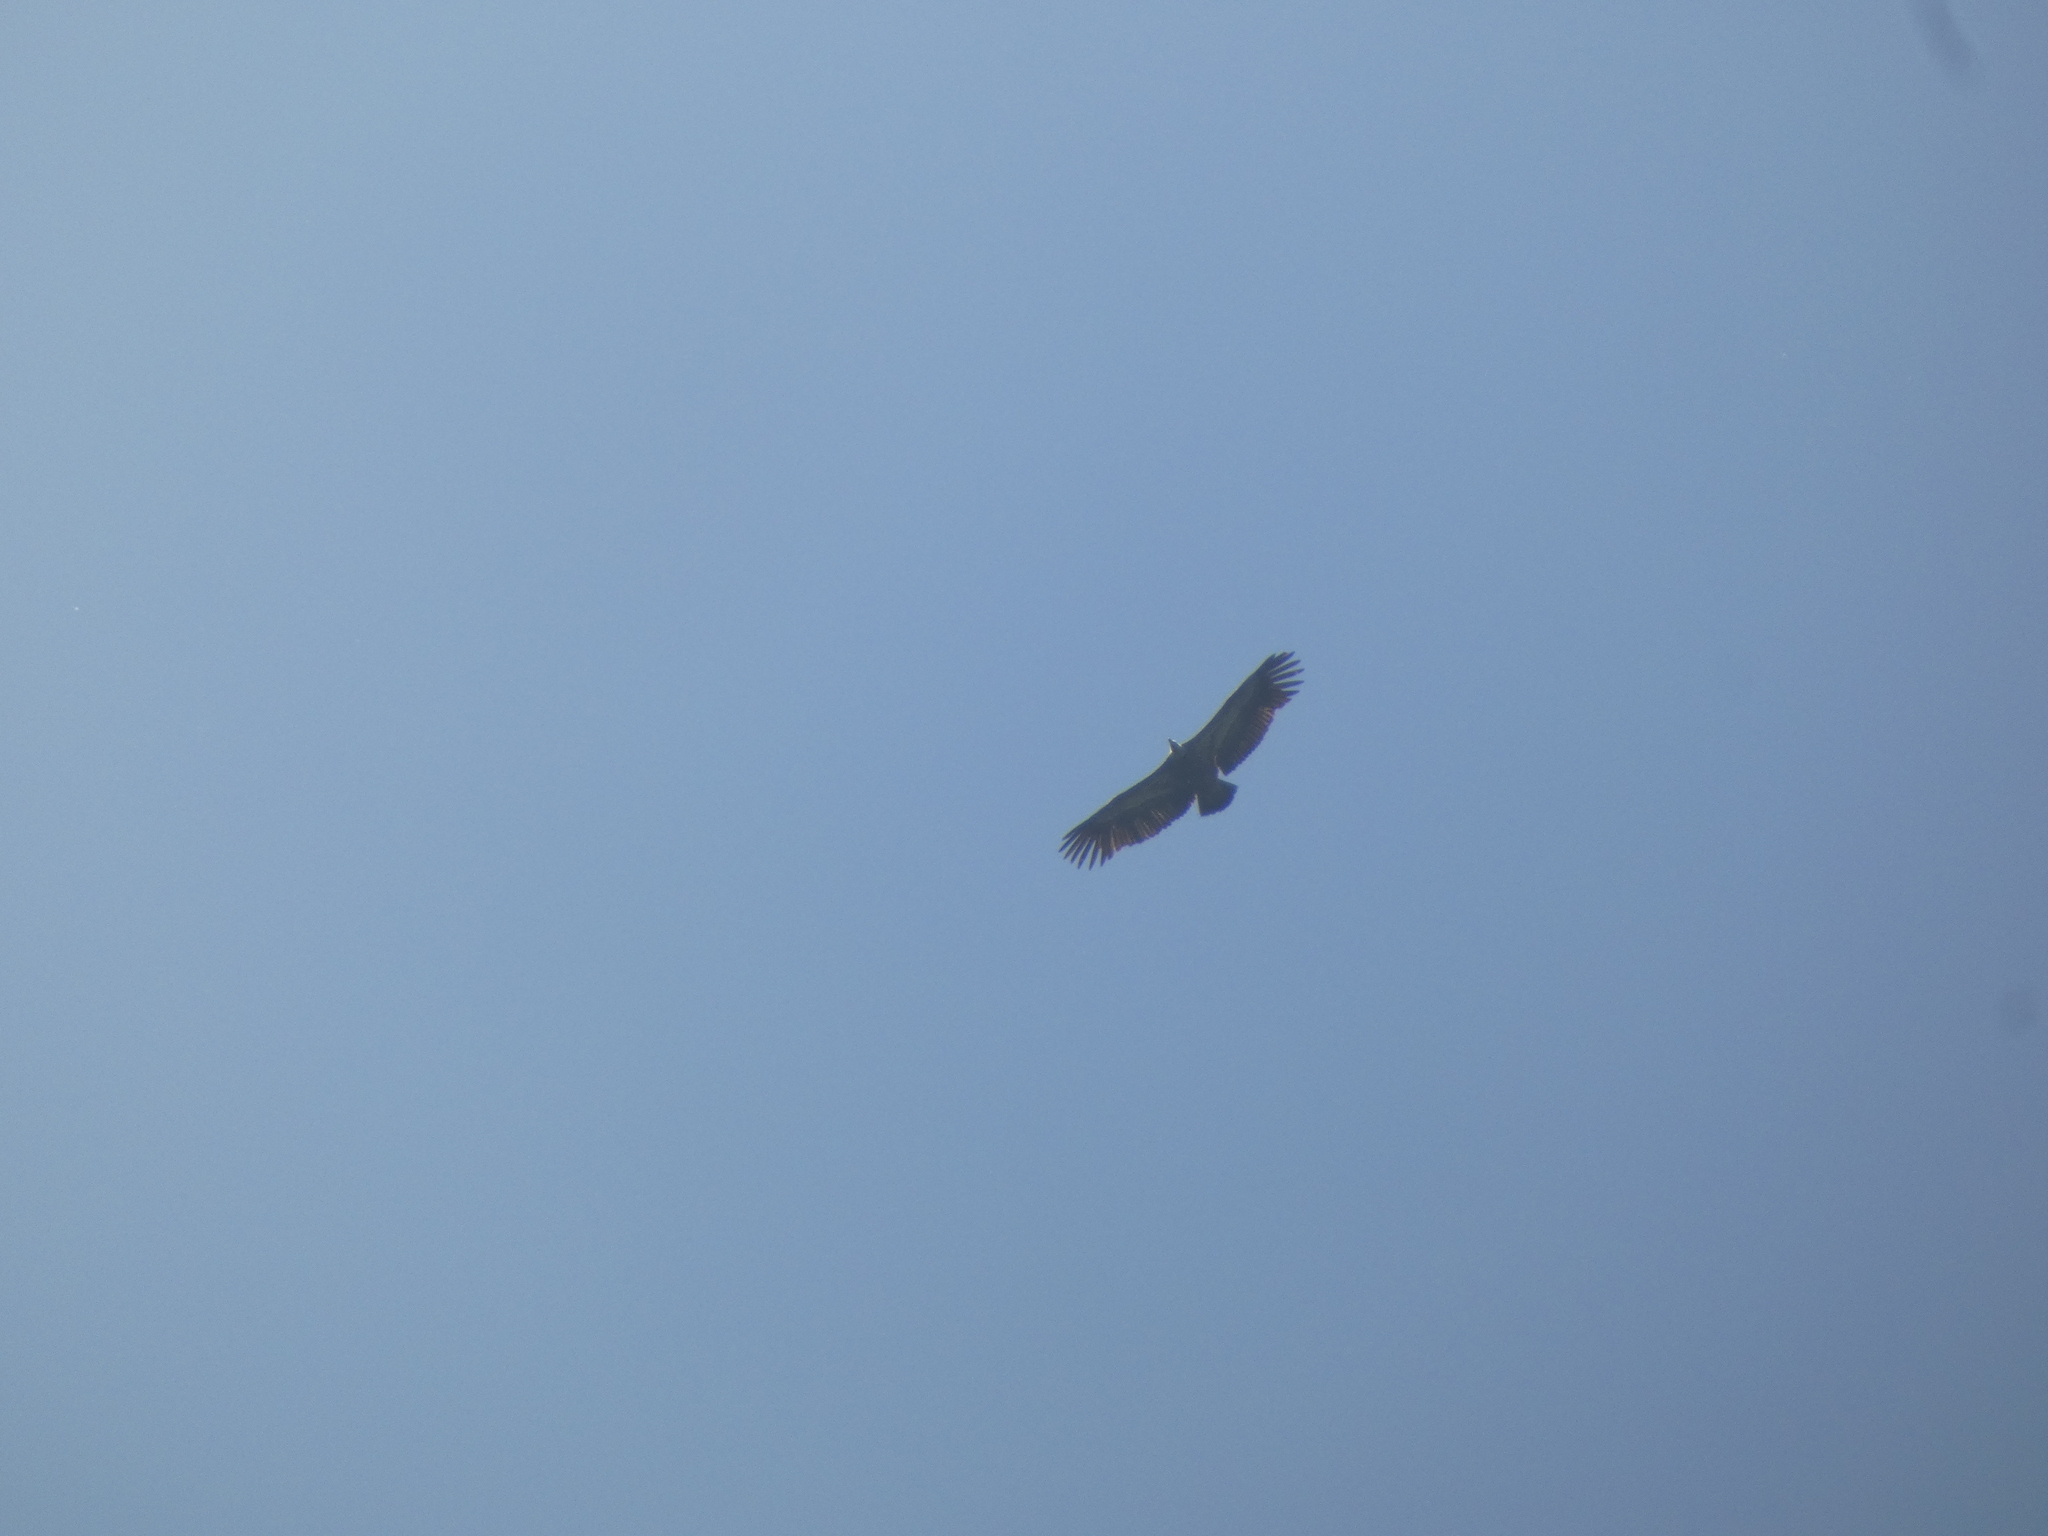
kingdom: Animalia
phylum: Chordata
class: Aves
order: Accipitriformes
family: Accipitridae
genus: Gyps
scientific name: Gyps fulvus
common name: Griffon vulture
